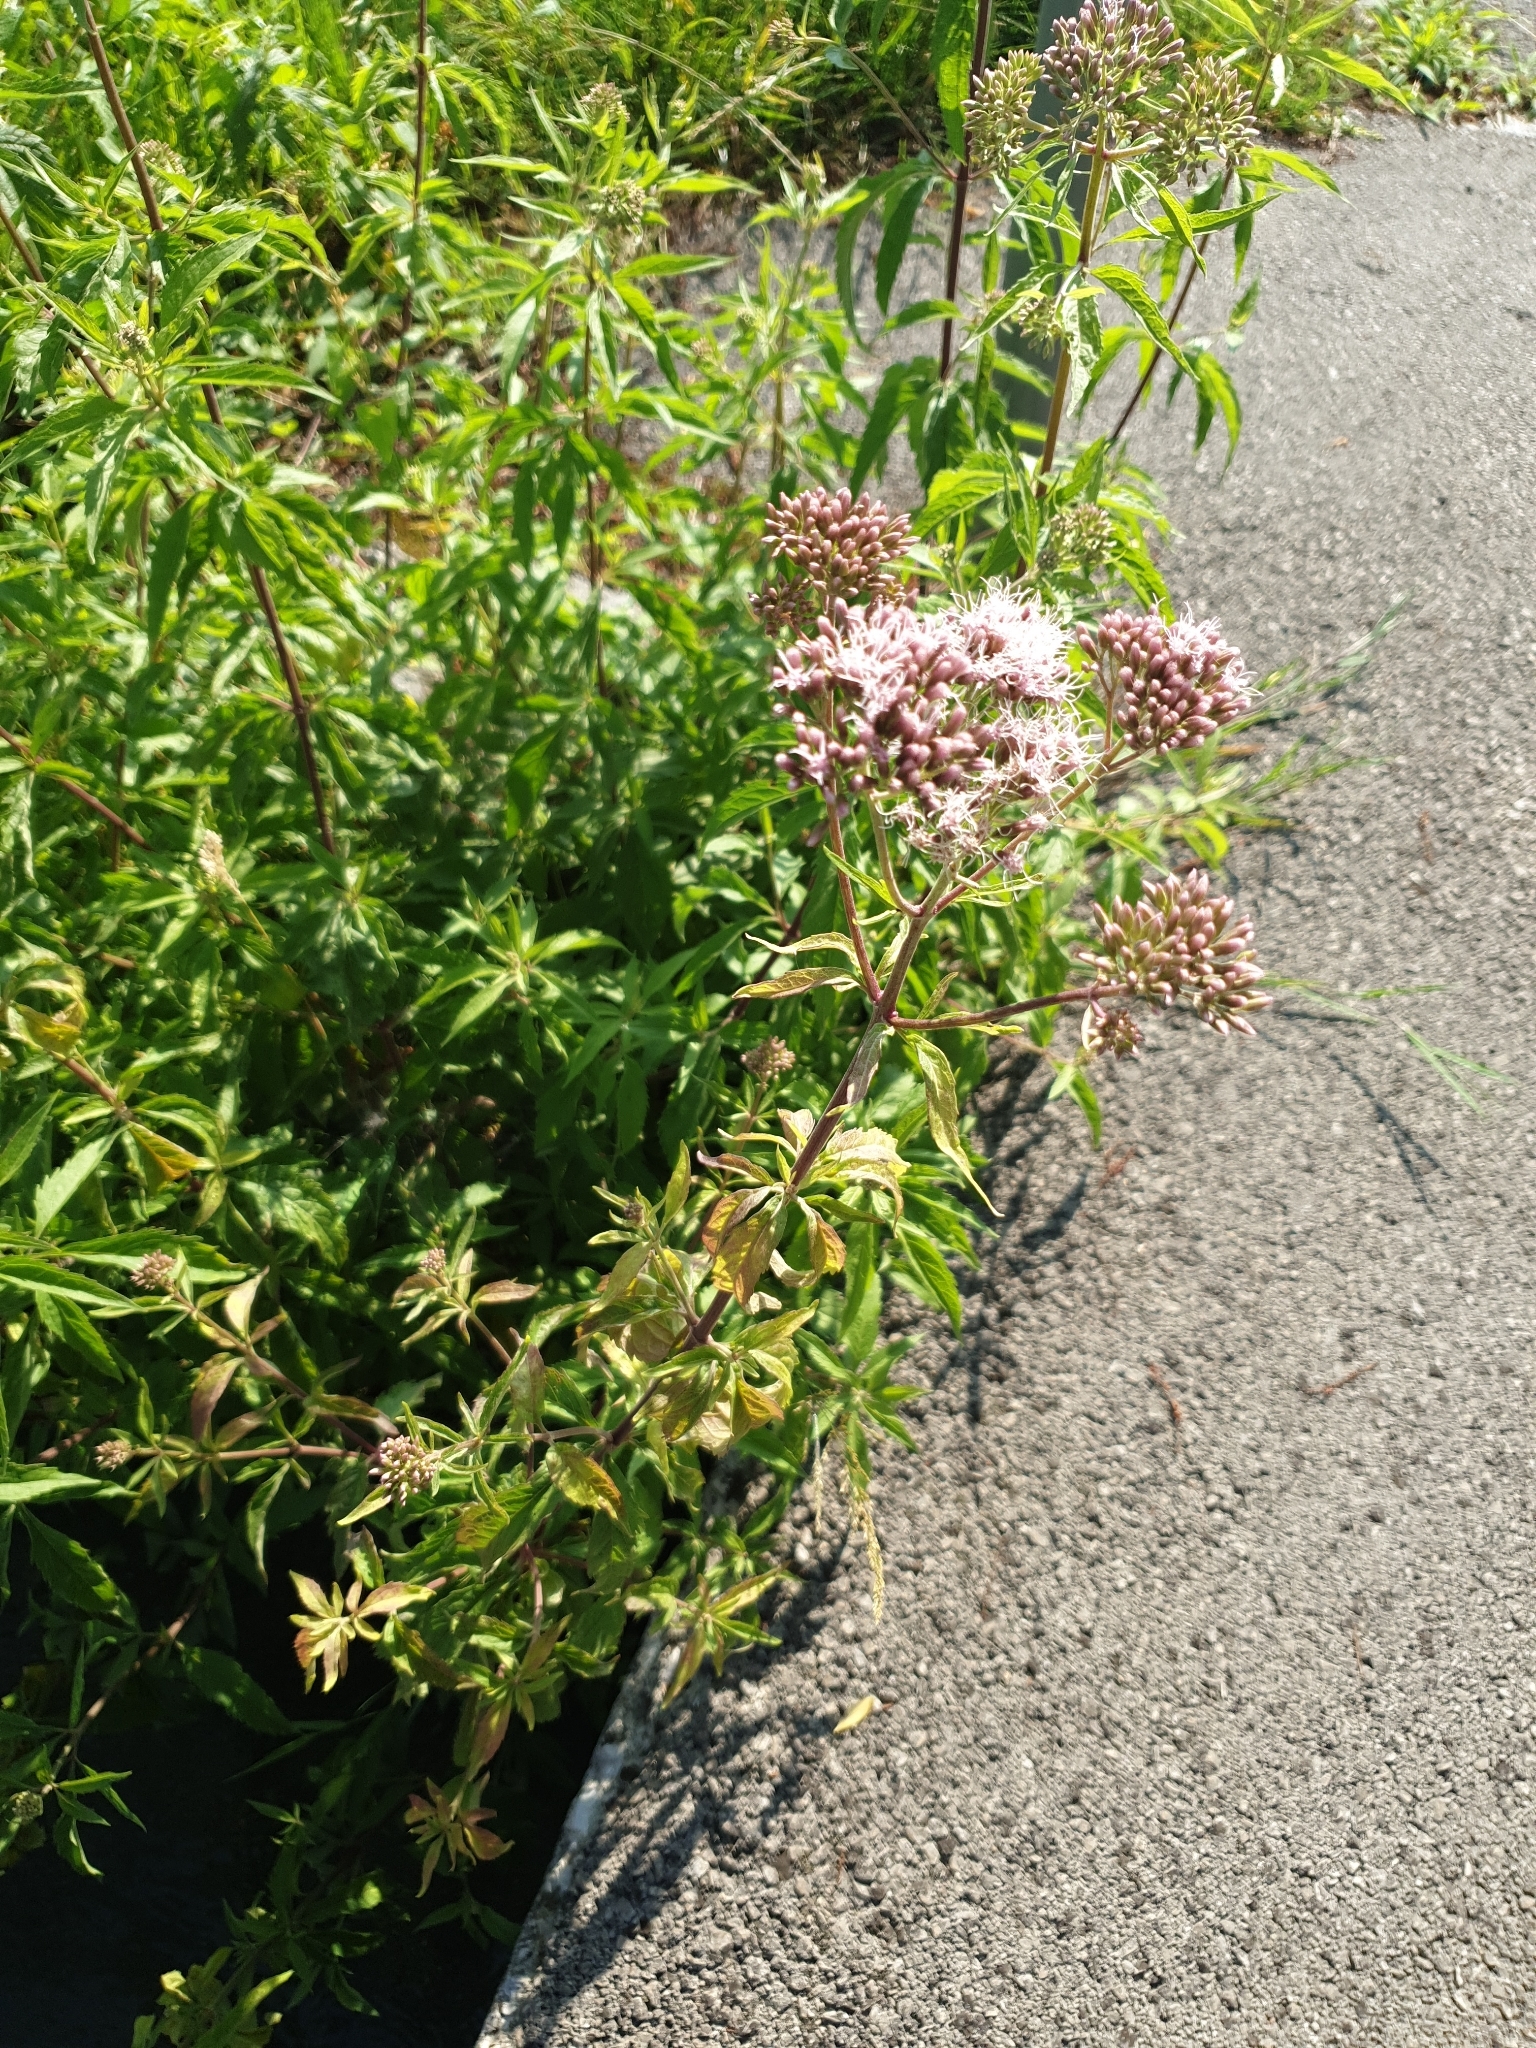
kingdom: Plantae
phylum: Tracheophyta
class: Magnoliopsida
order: Asterales
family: Asteraceae
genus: Eupatorium
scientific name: Eupatorium cannabinum
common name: Hemp-agrimony
